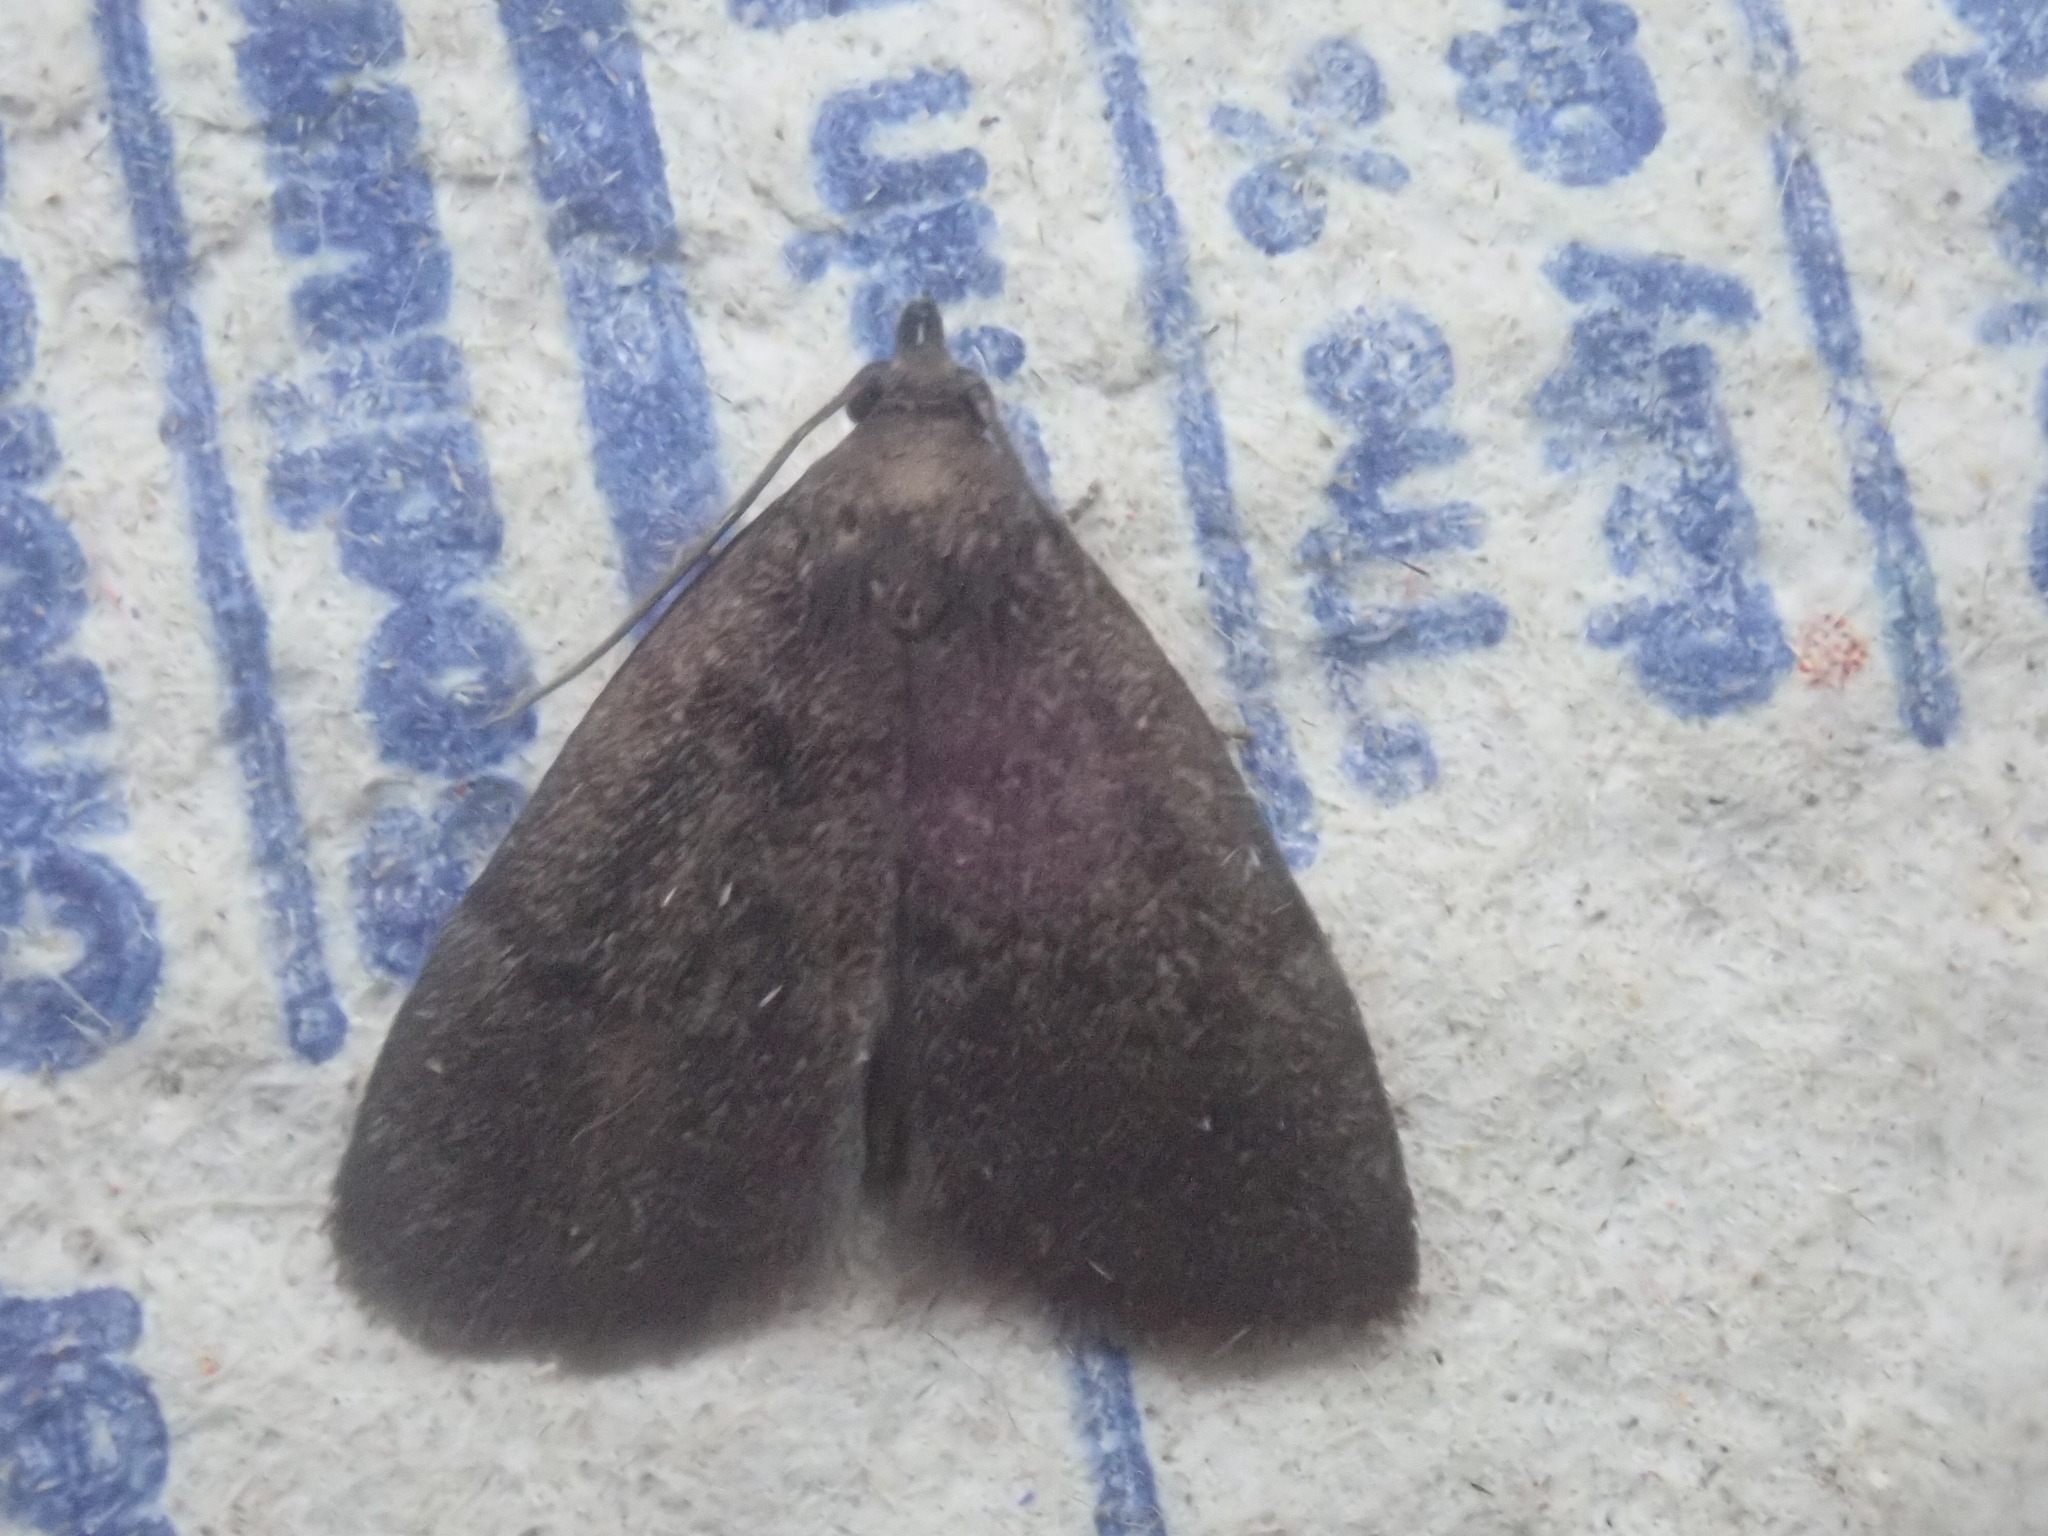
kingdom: Animalia
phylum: Arthropoda
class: Insecta
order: Lepidoptera
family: Erebidae
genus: Idia
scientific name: Idia rotundalis
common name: Rotund idia moth
